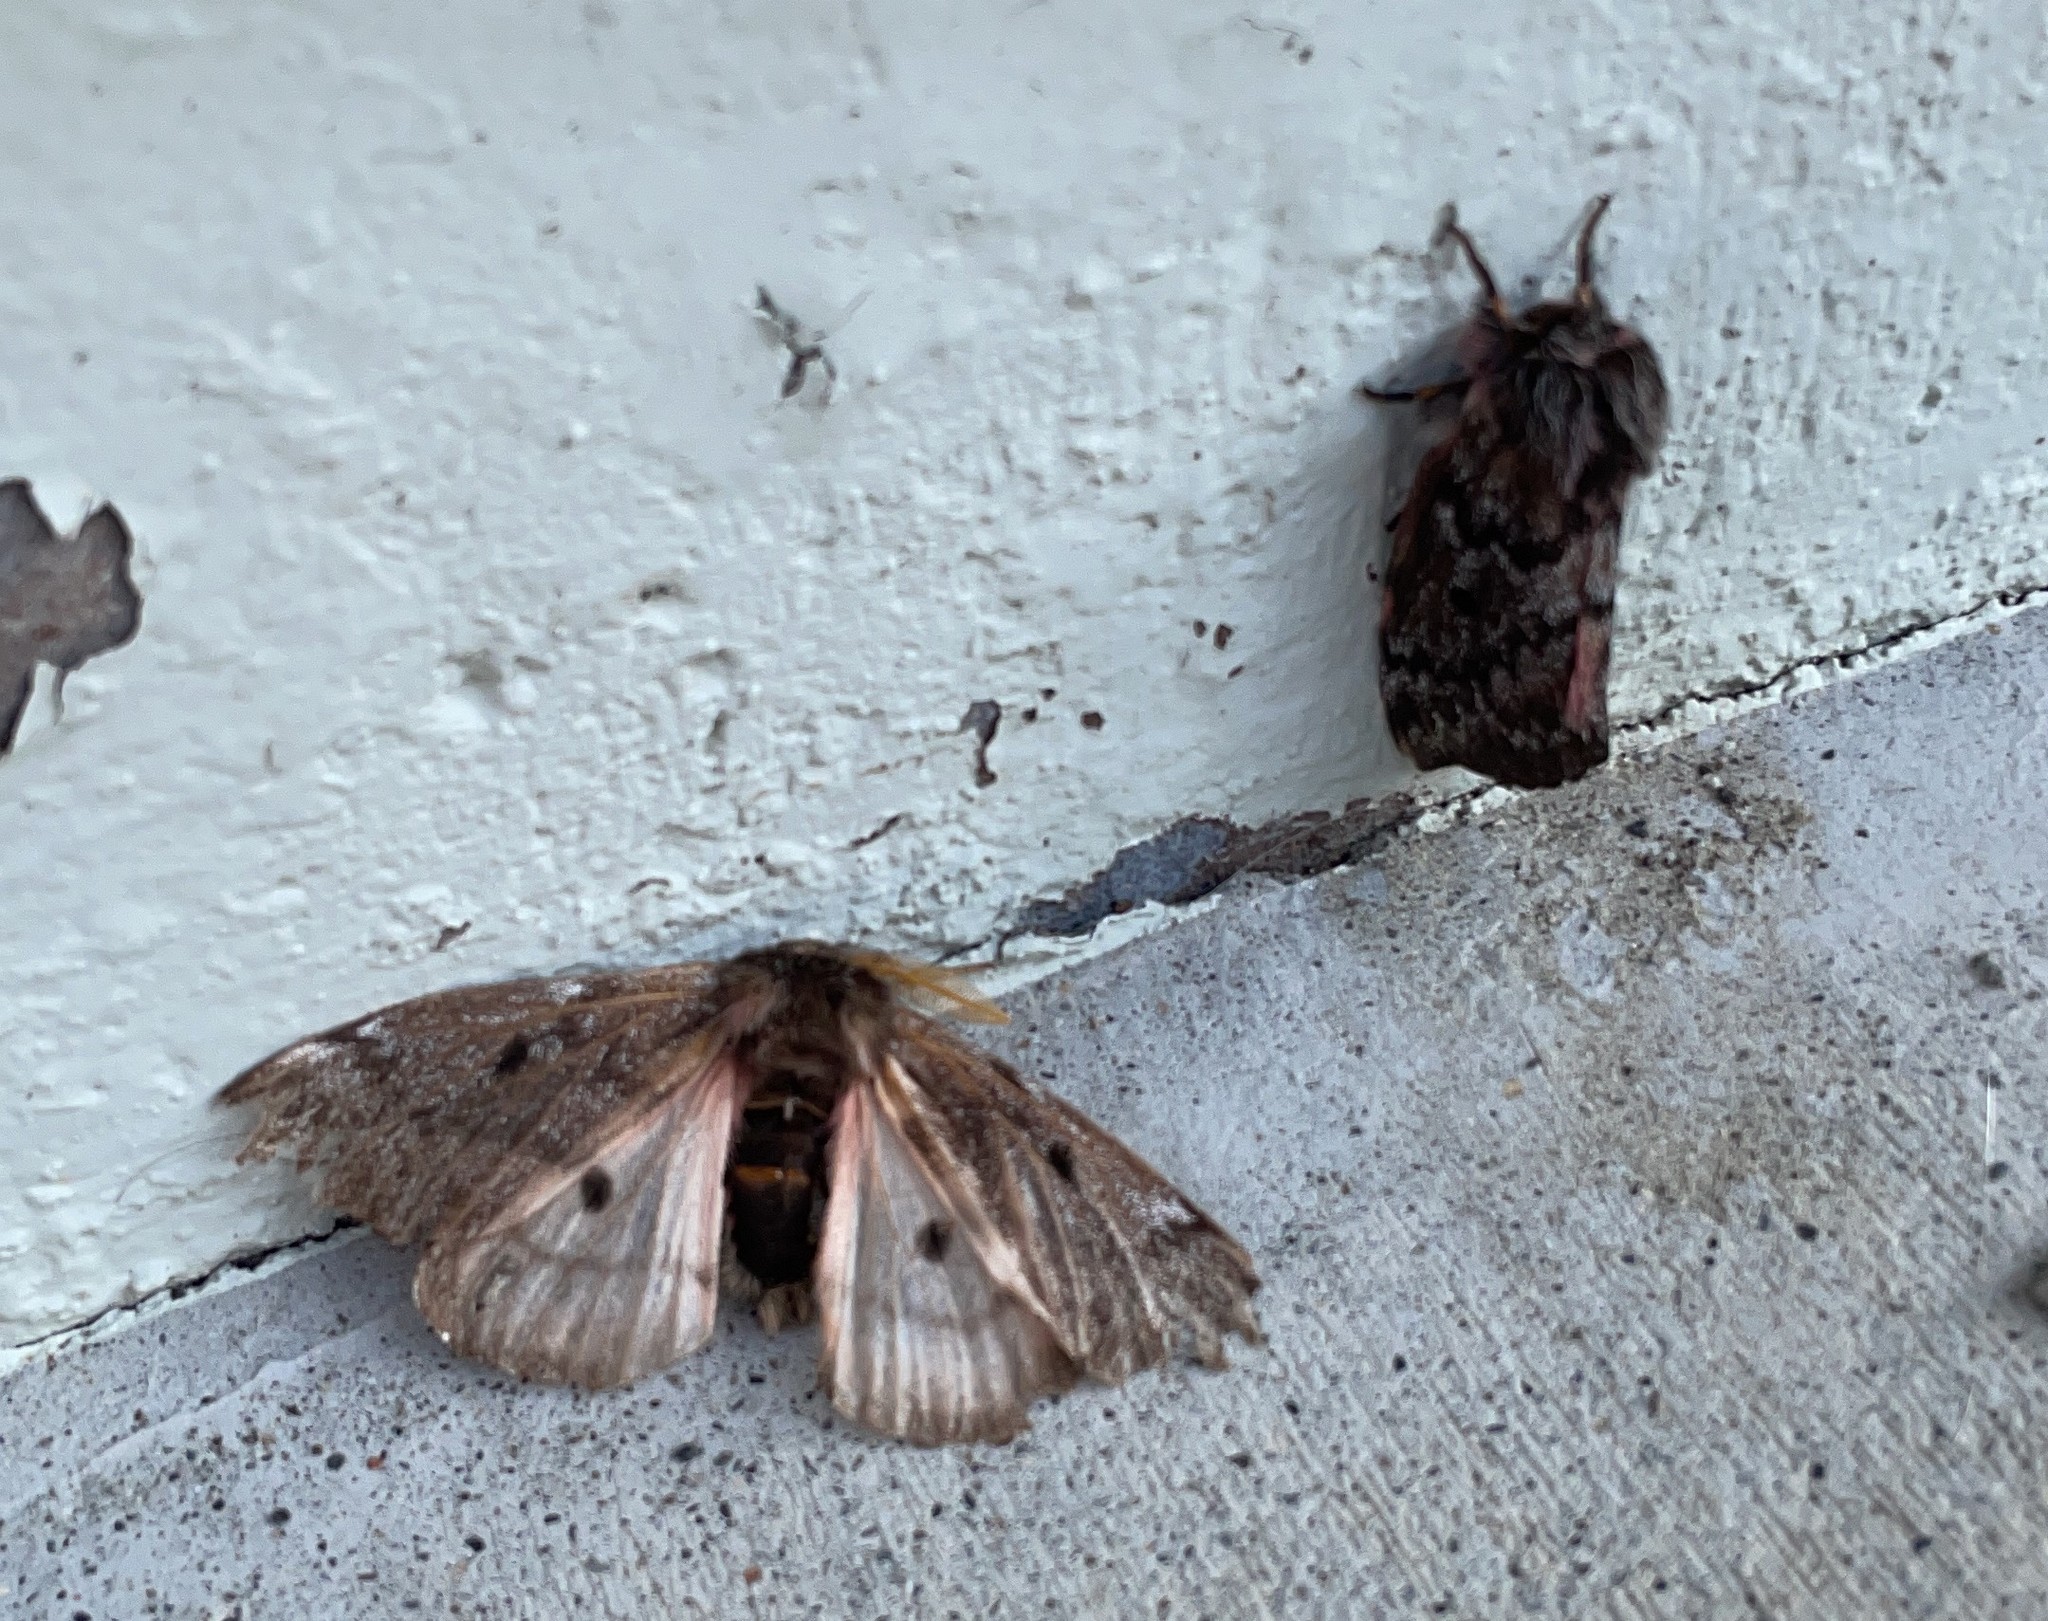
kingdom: Animalia
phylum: Arthropoda
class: Insecta
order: Lepidoptera
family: Saturniidae
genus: Coloradia
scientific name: Coloradia pandora
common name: Pandora pinemoth
